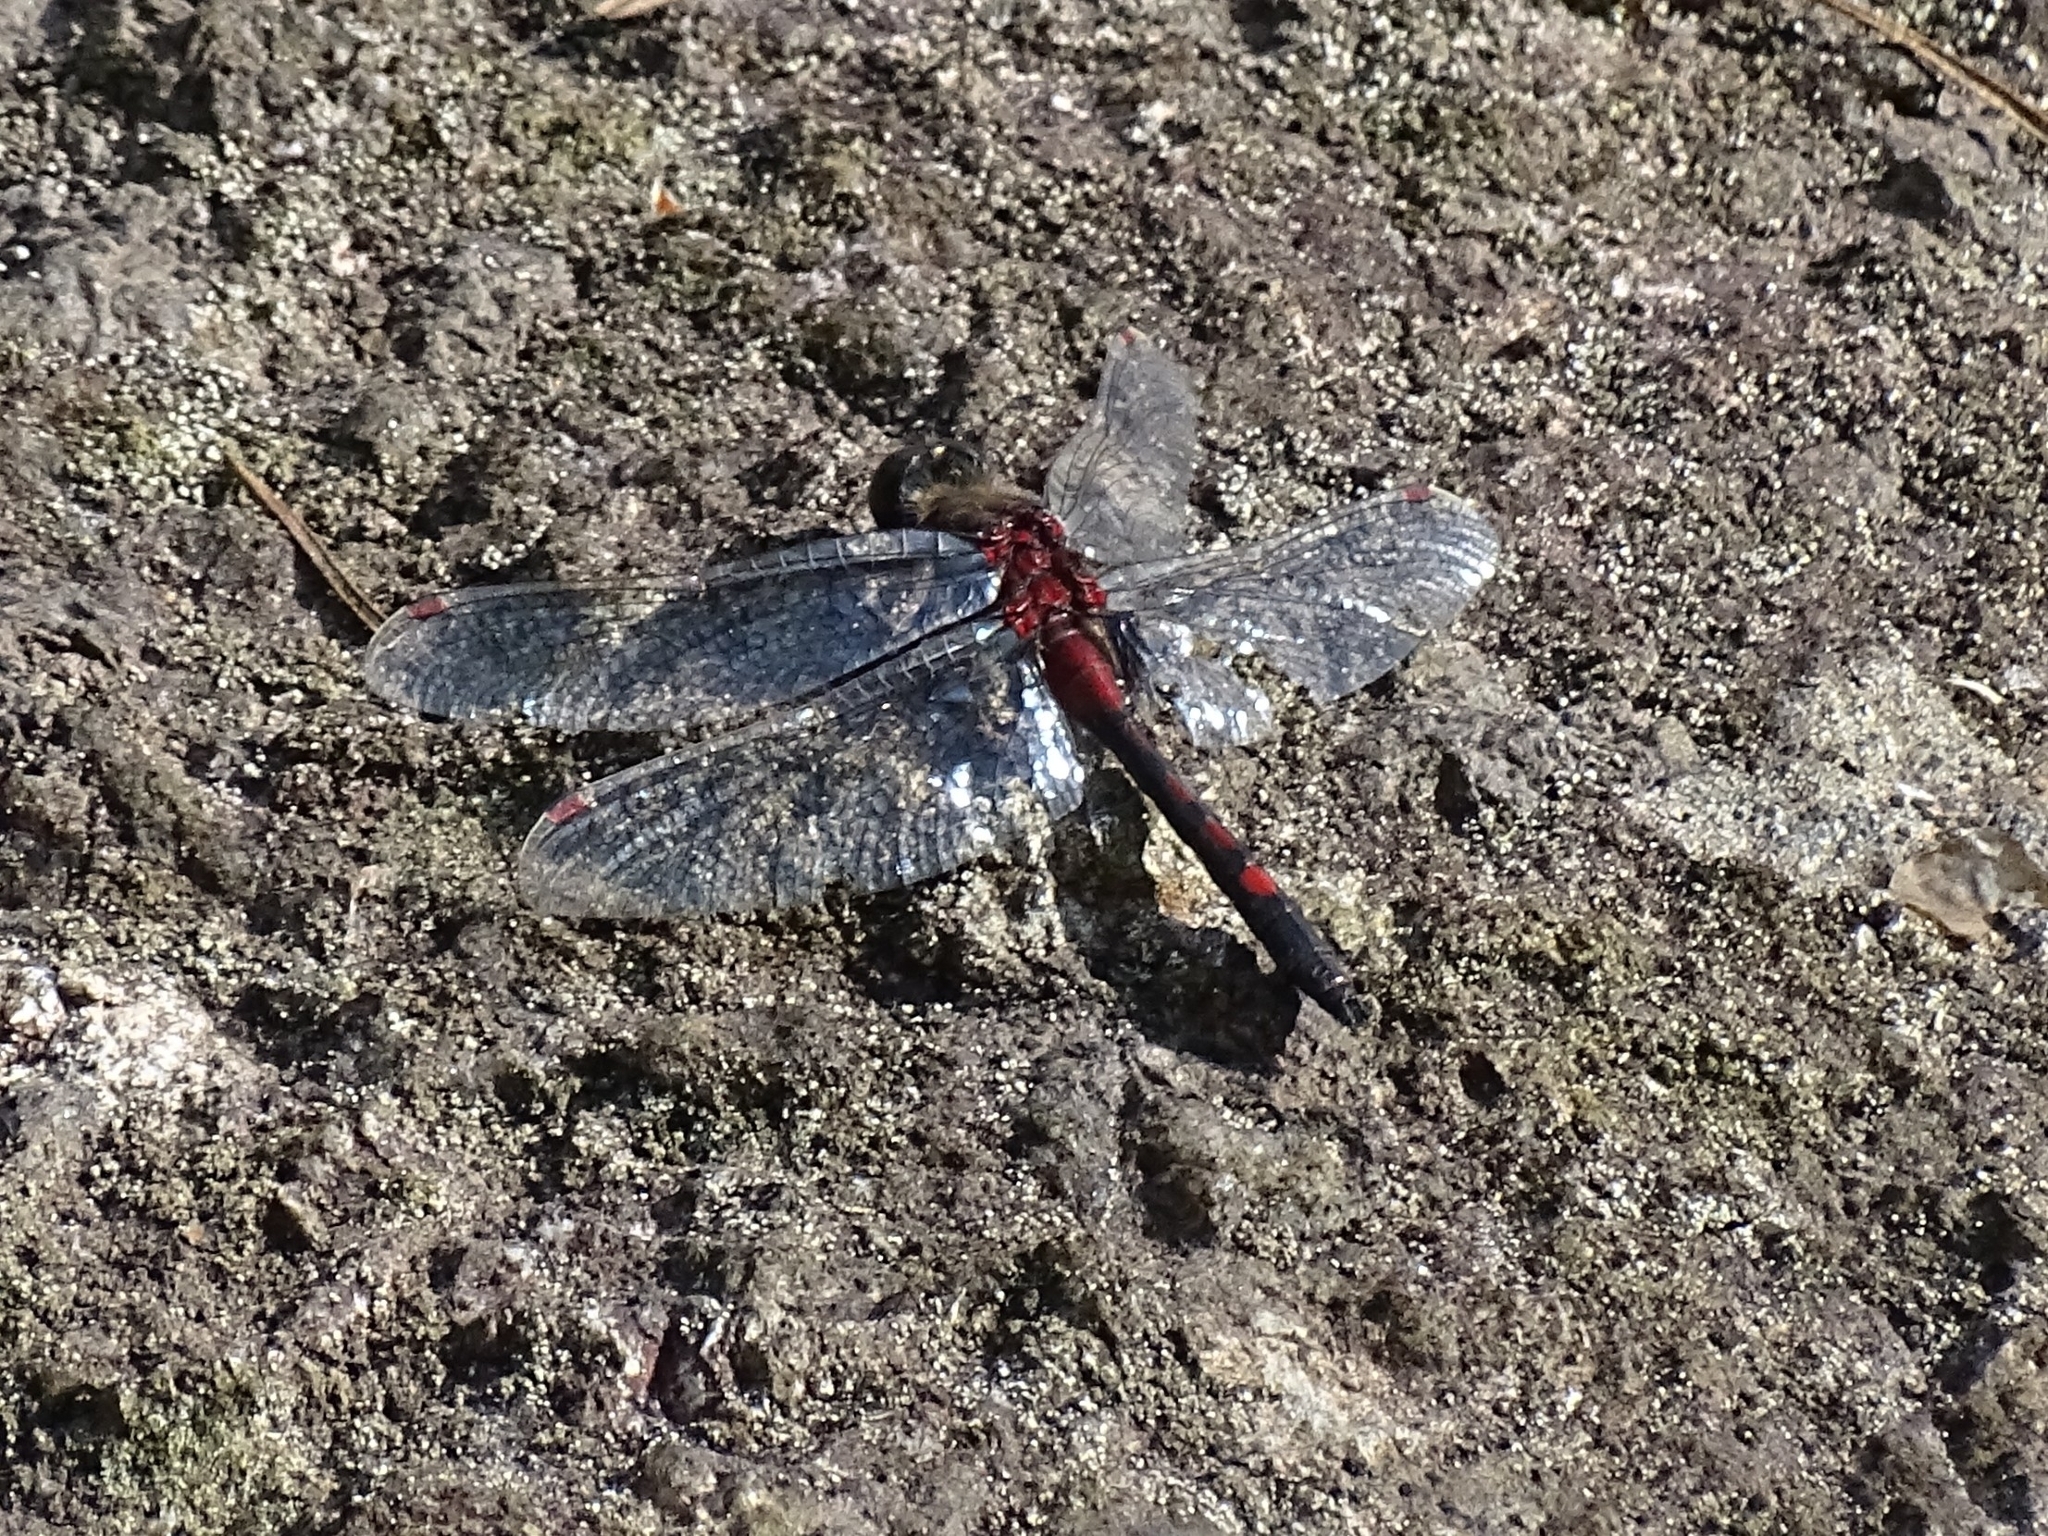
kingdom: Animalia
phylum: Arthropoda
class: Insecta
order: Odonata
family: Libellulidae
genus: Leucorrhinia
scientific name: Leucorrhinia rubicunda
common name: Ruby whiteface
